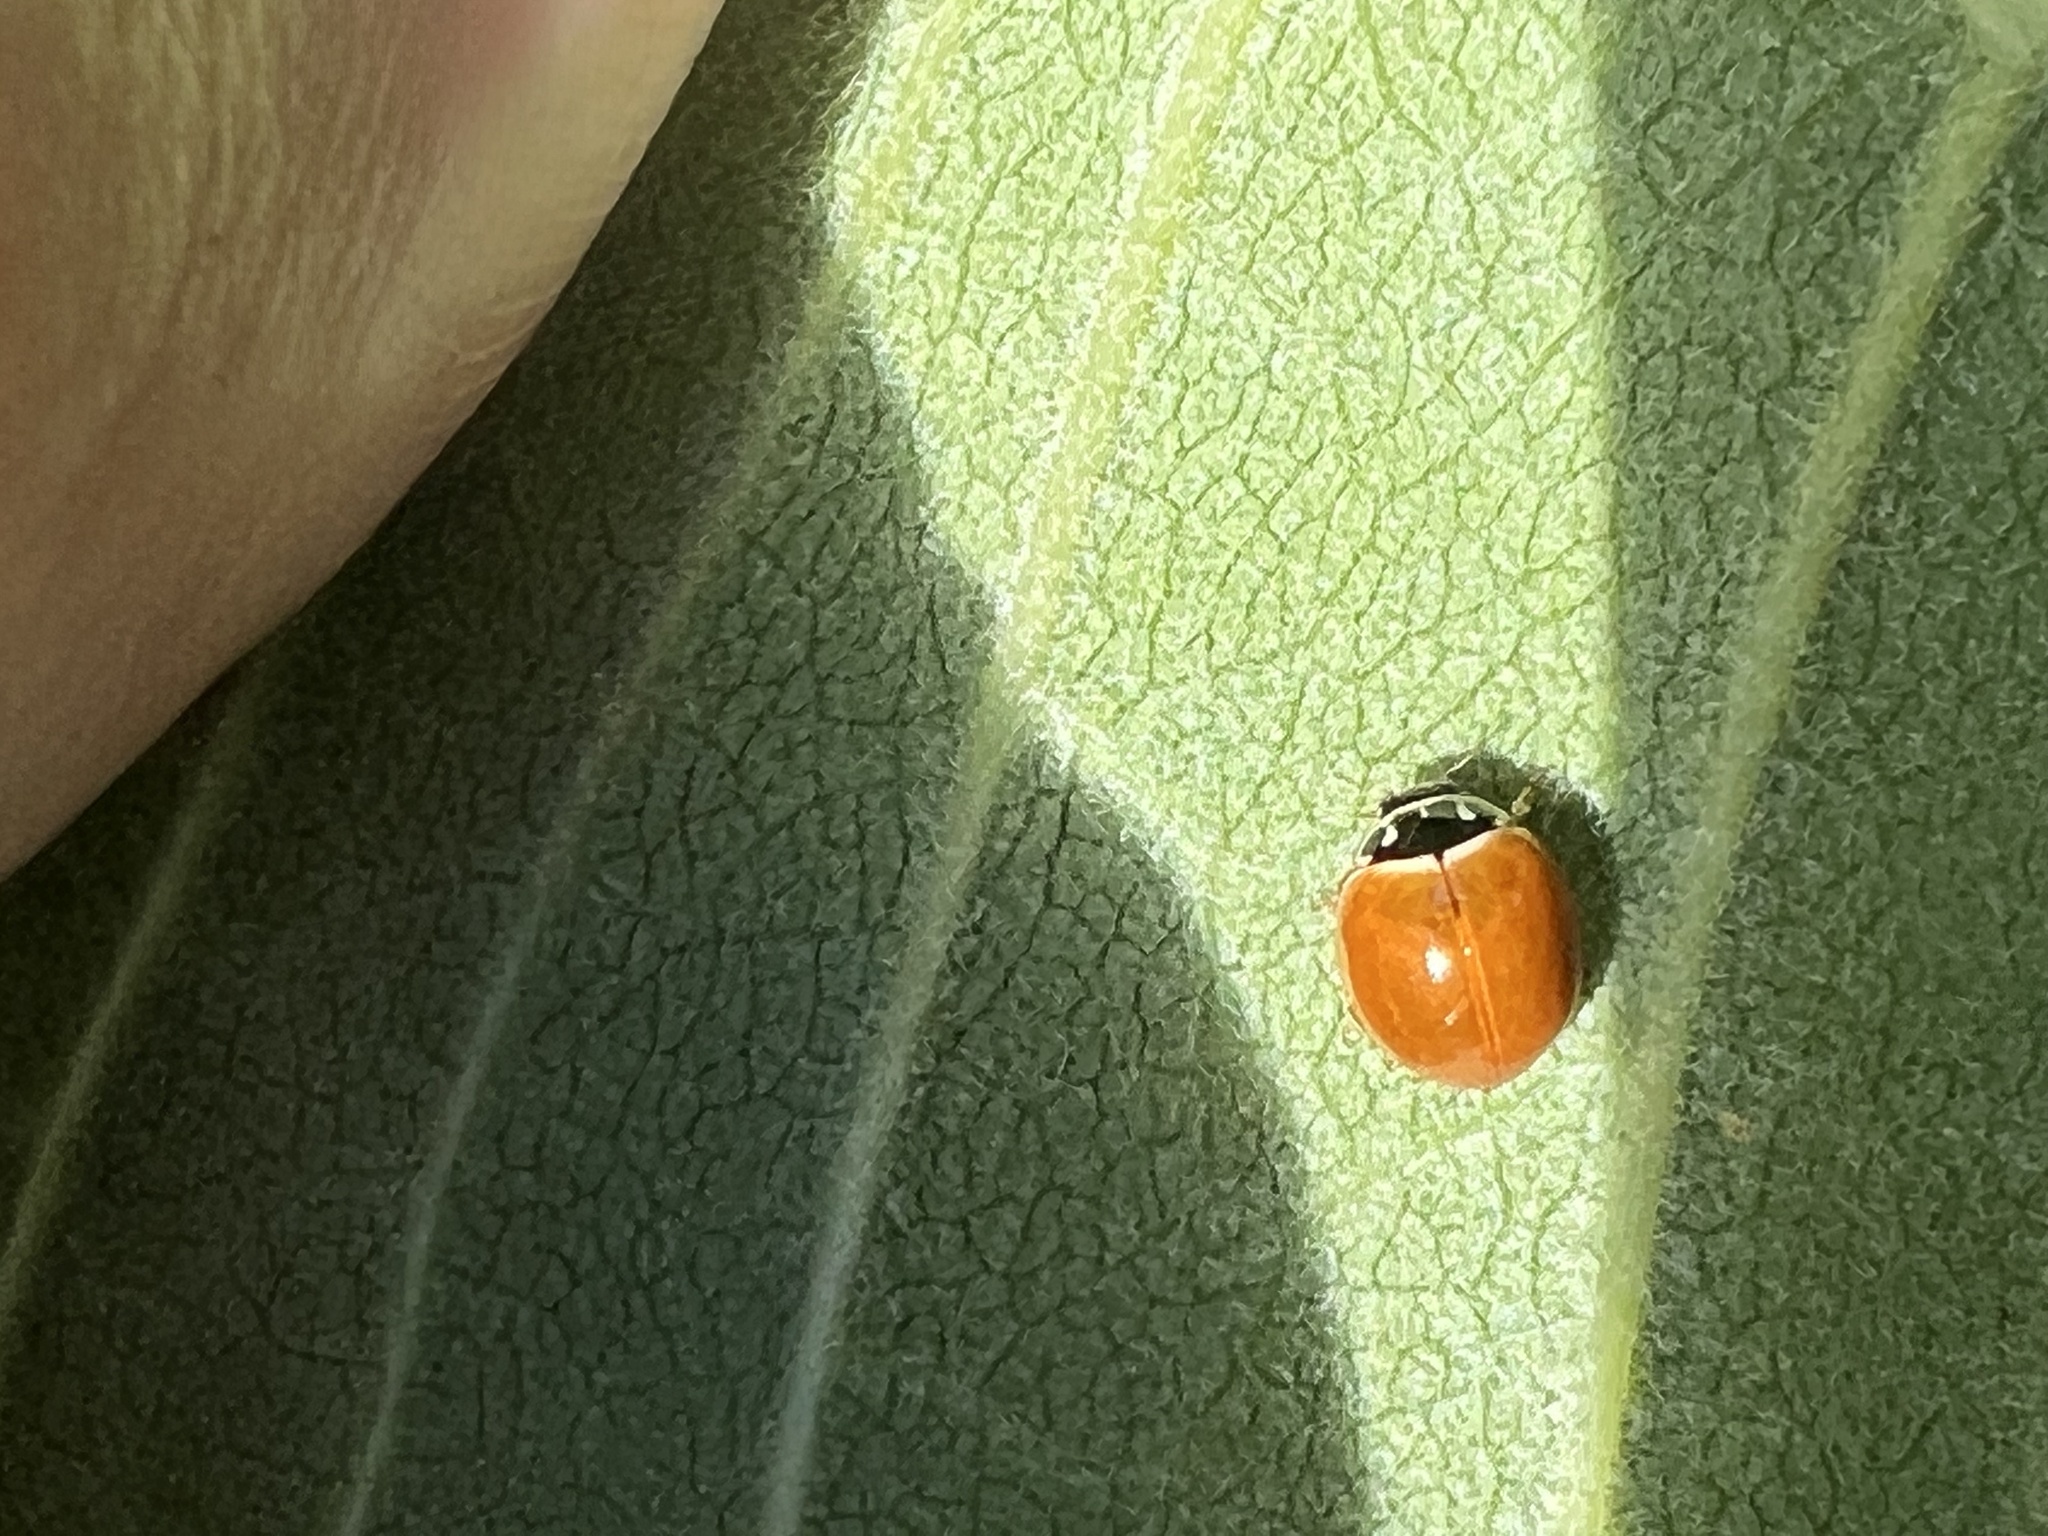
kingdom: Animalia
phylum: Arthropoda
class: Insecta
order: Coleoptera
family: Coccinellidae
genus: Cycloneda
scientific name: Cycloneda munda
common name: Polished lady beetle
